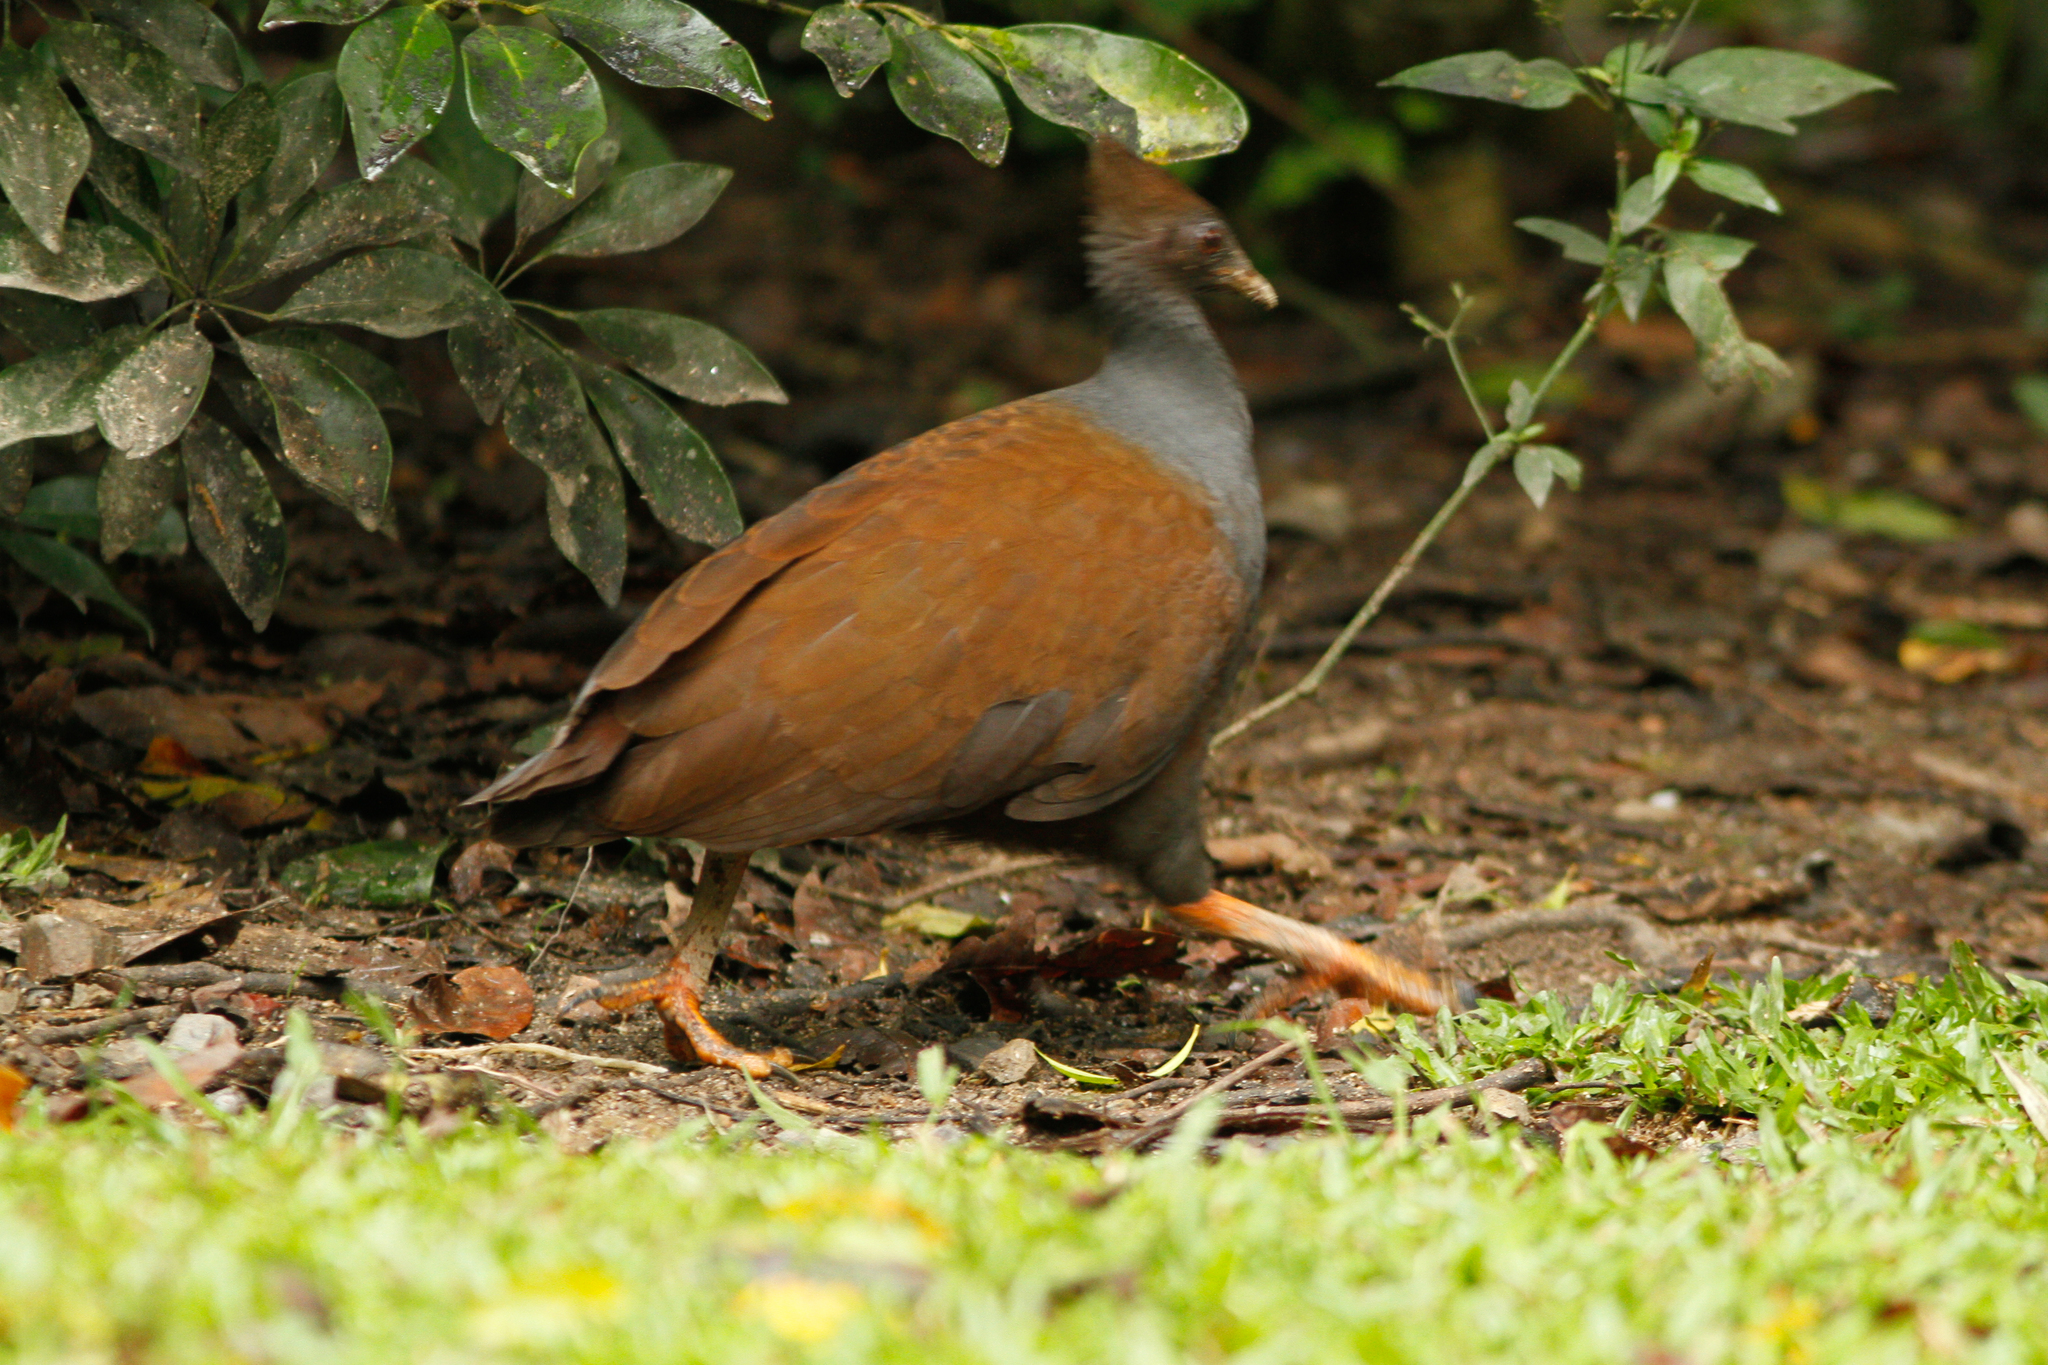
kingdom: Animalia
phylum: Chordata
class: Aves
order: Galliformes
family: Megapodiidae
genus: Megapodius
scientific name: Megapodius reinwardt
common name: Orange-footed scrubfowl
